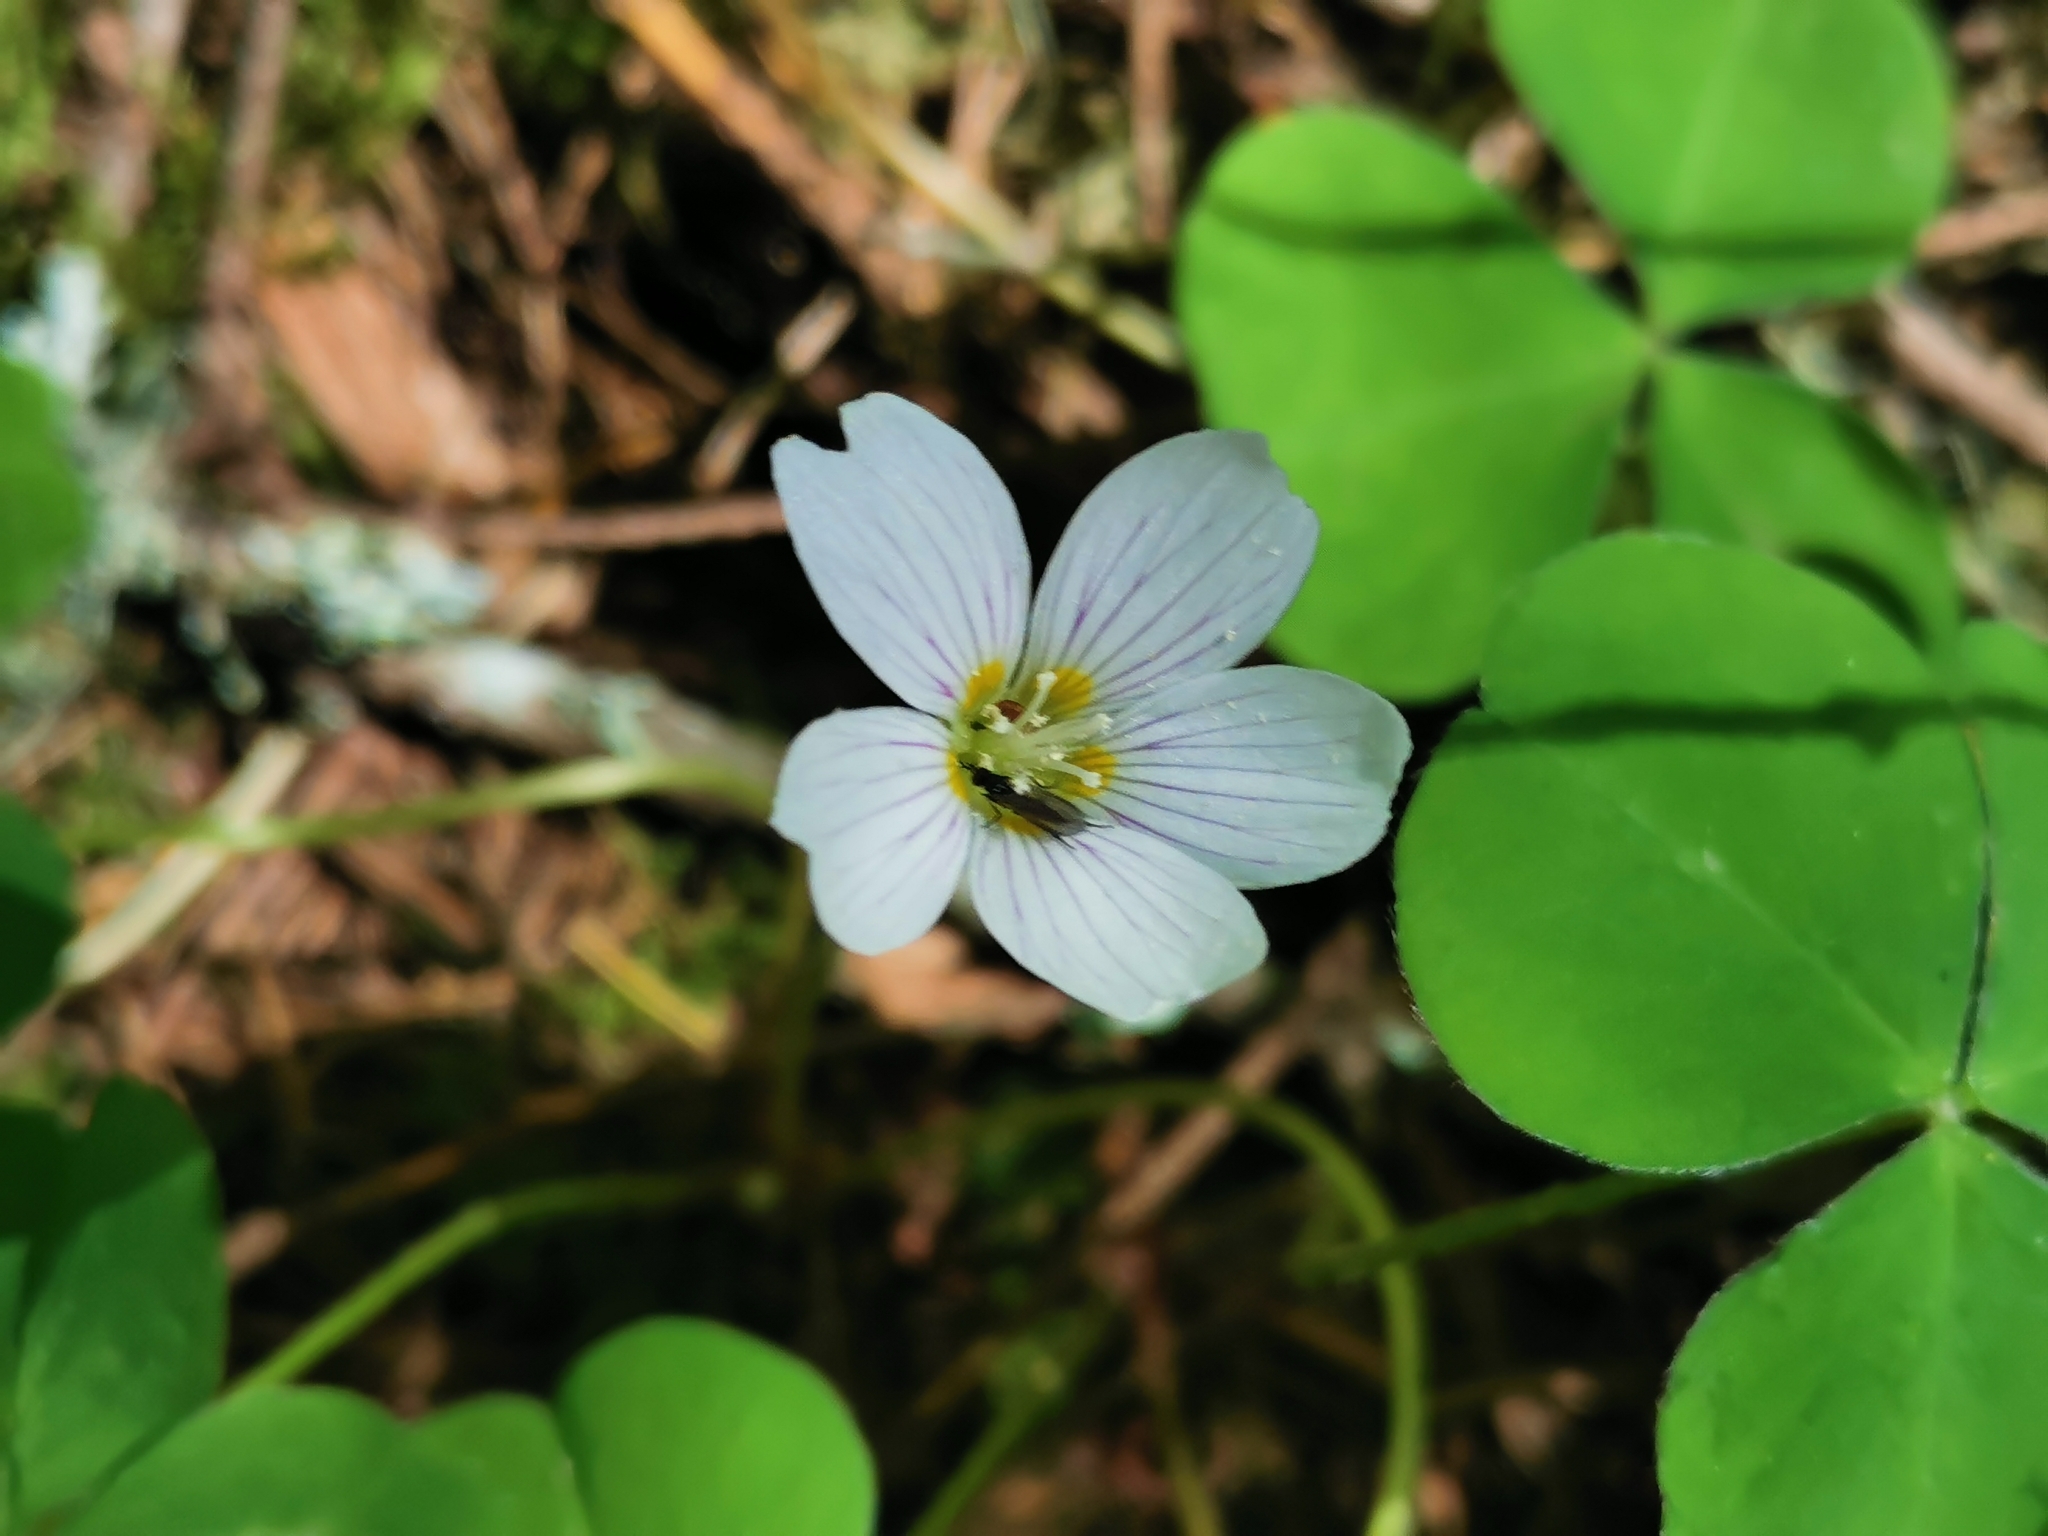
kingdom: Plantae
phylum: Tracheophyta
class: Magnoliopsida
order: Oxalidales
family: Oxalidaceae
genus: Oxalis
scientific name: Oxalis oregana
